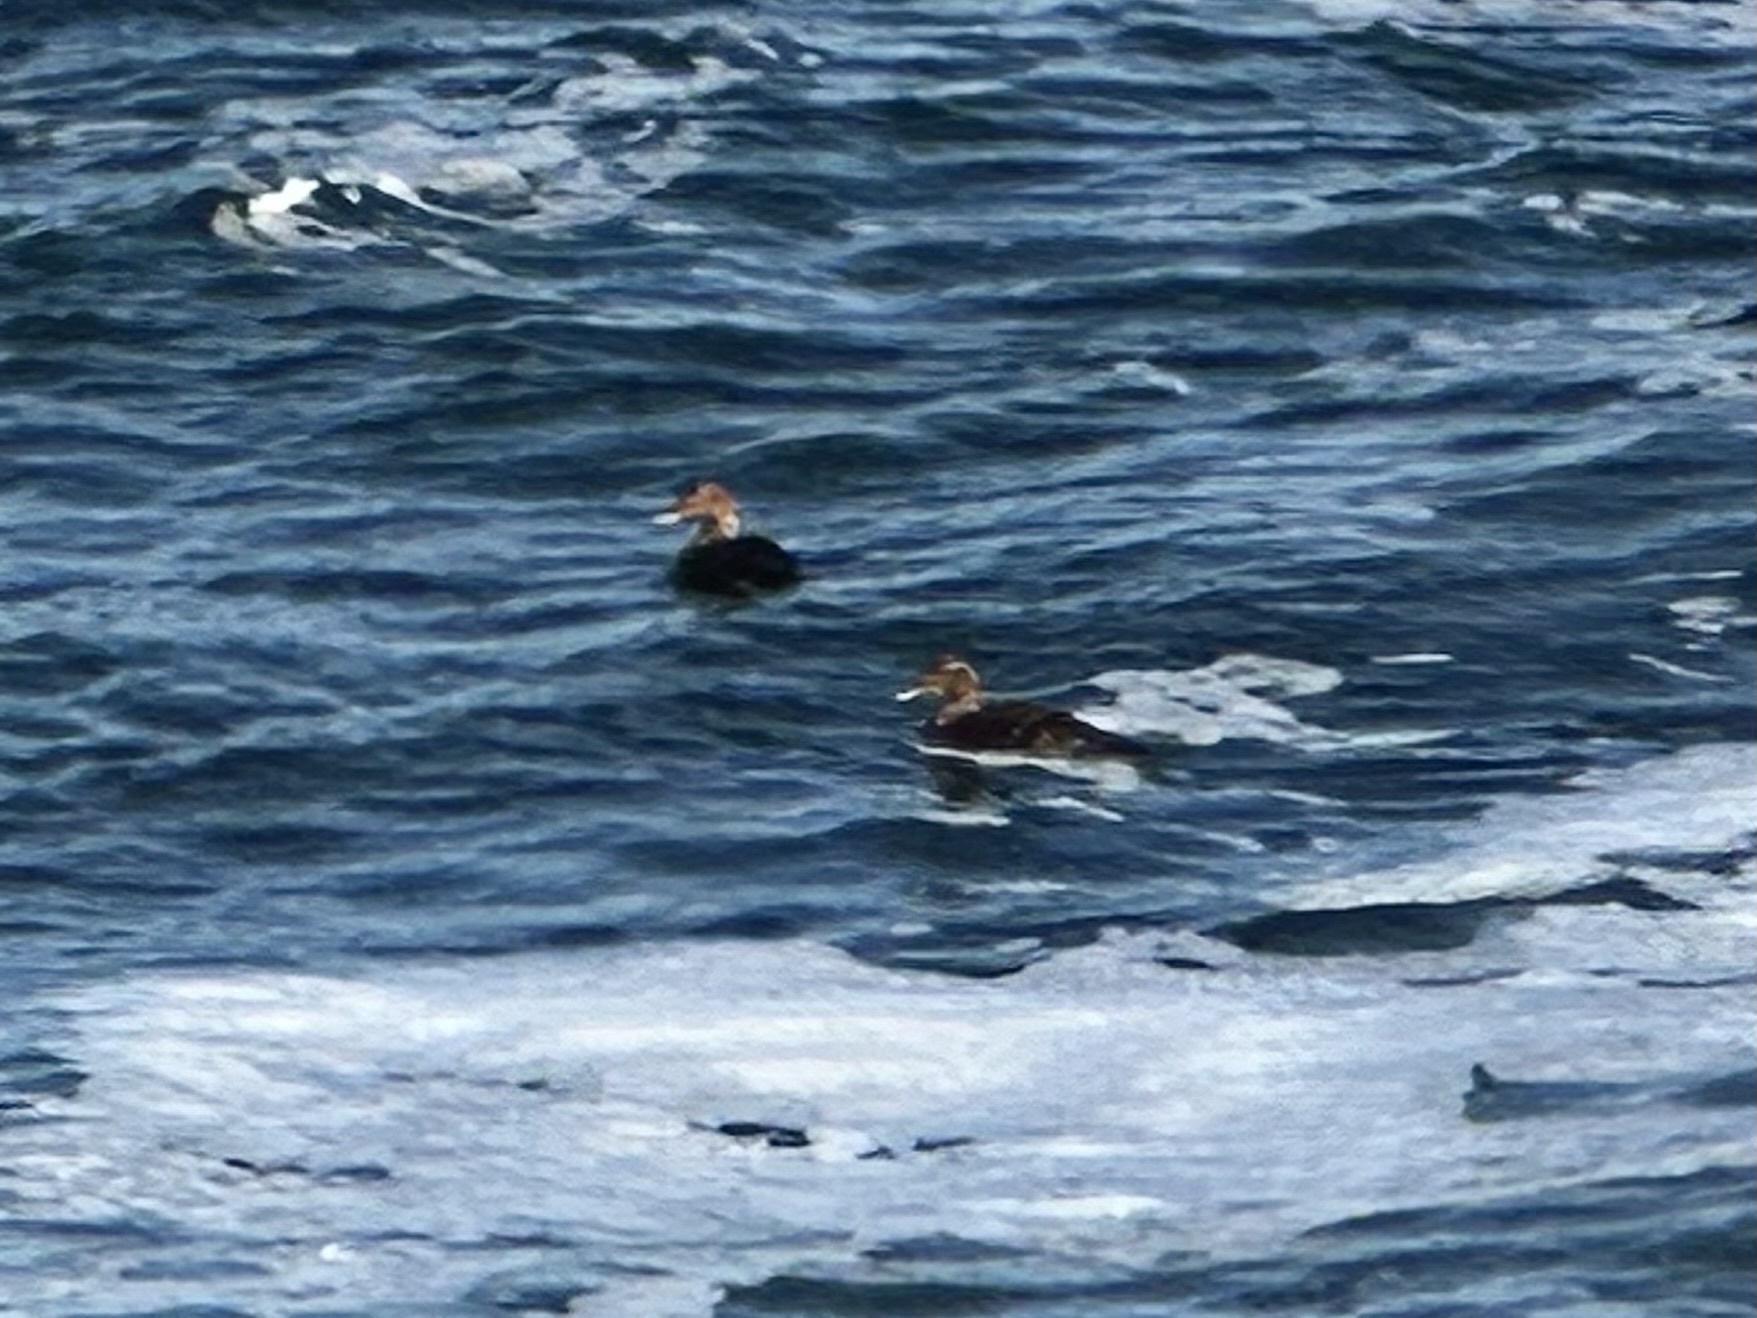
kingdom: Animalia
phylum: Chordata
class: Aves
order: Anseriformes
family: Anatidae
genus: Somateria
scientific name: Somateria mollissima
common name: Common eider
